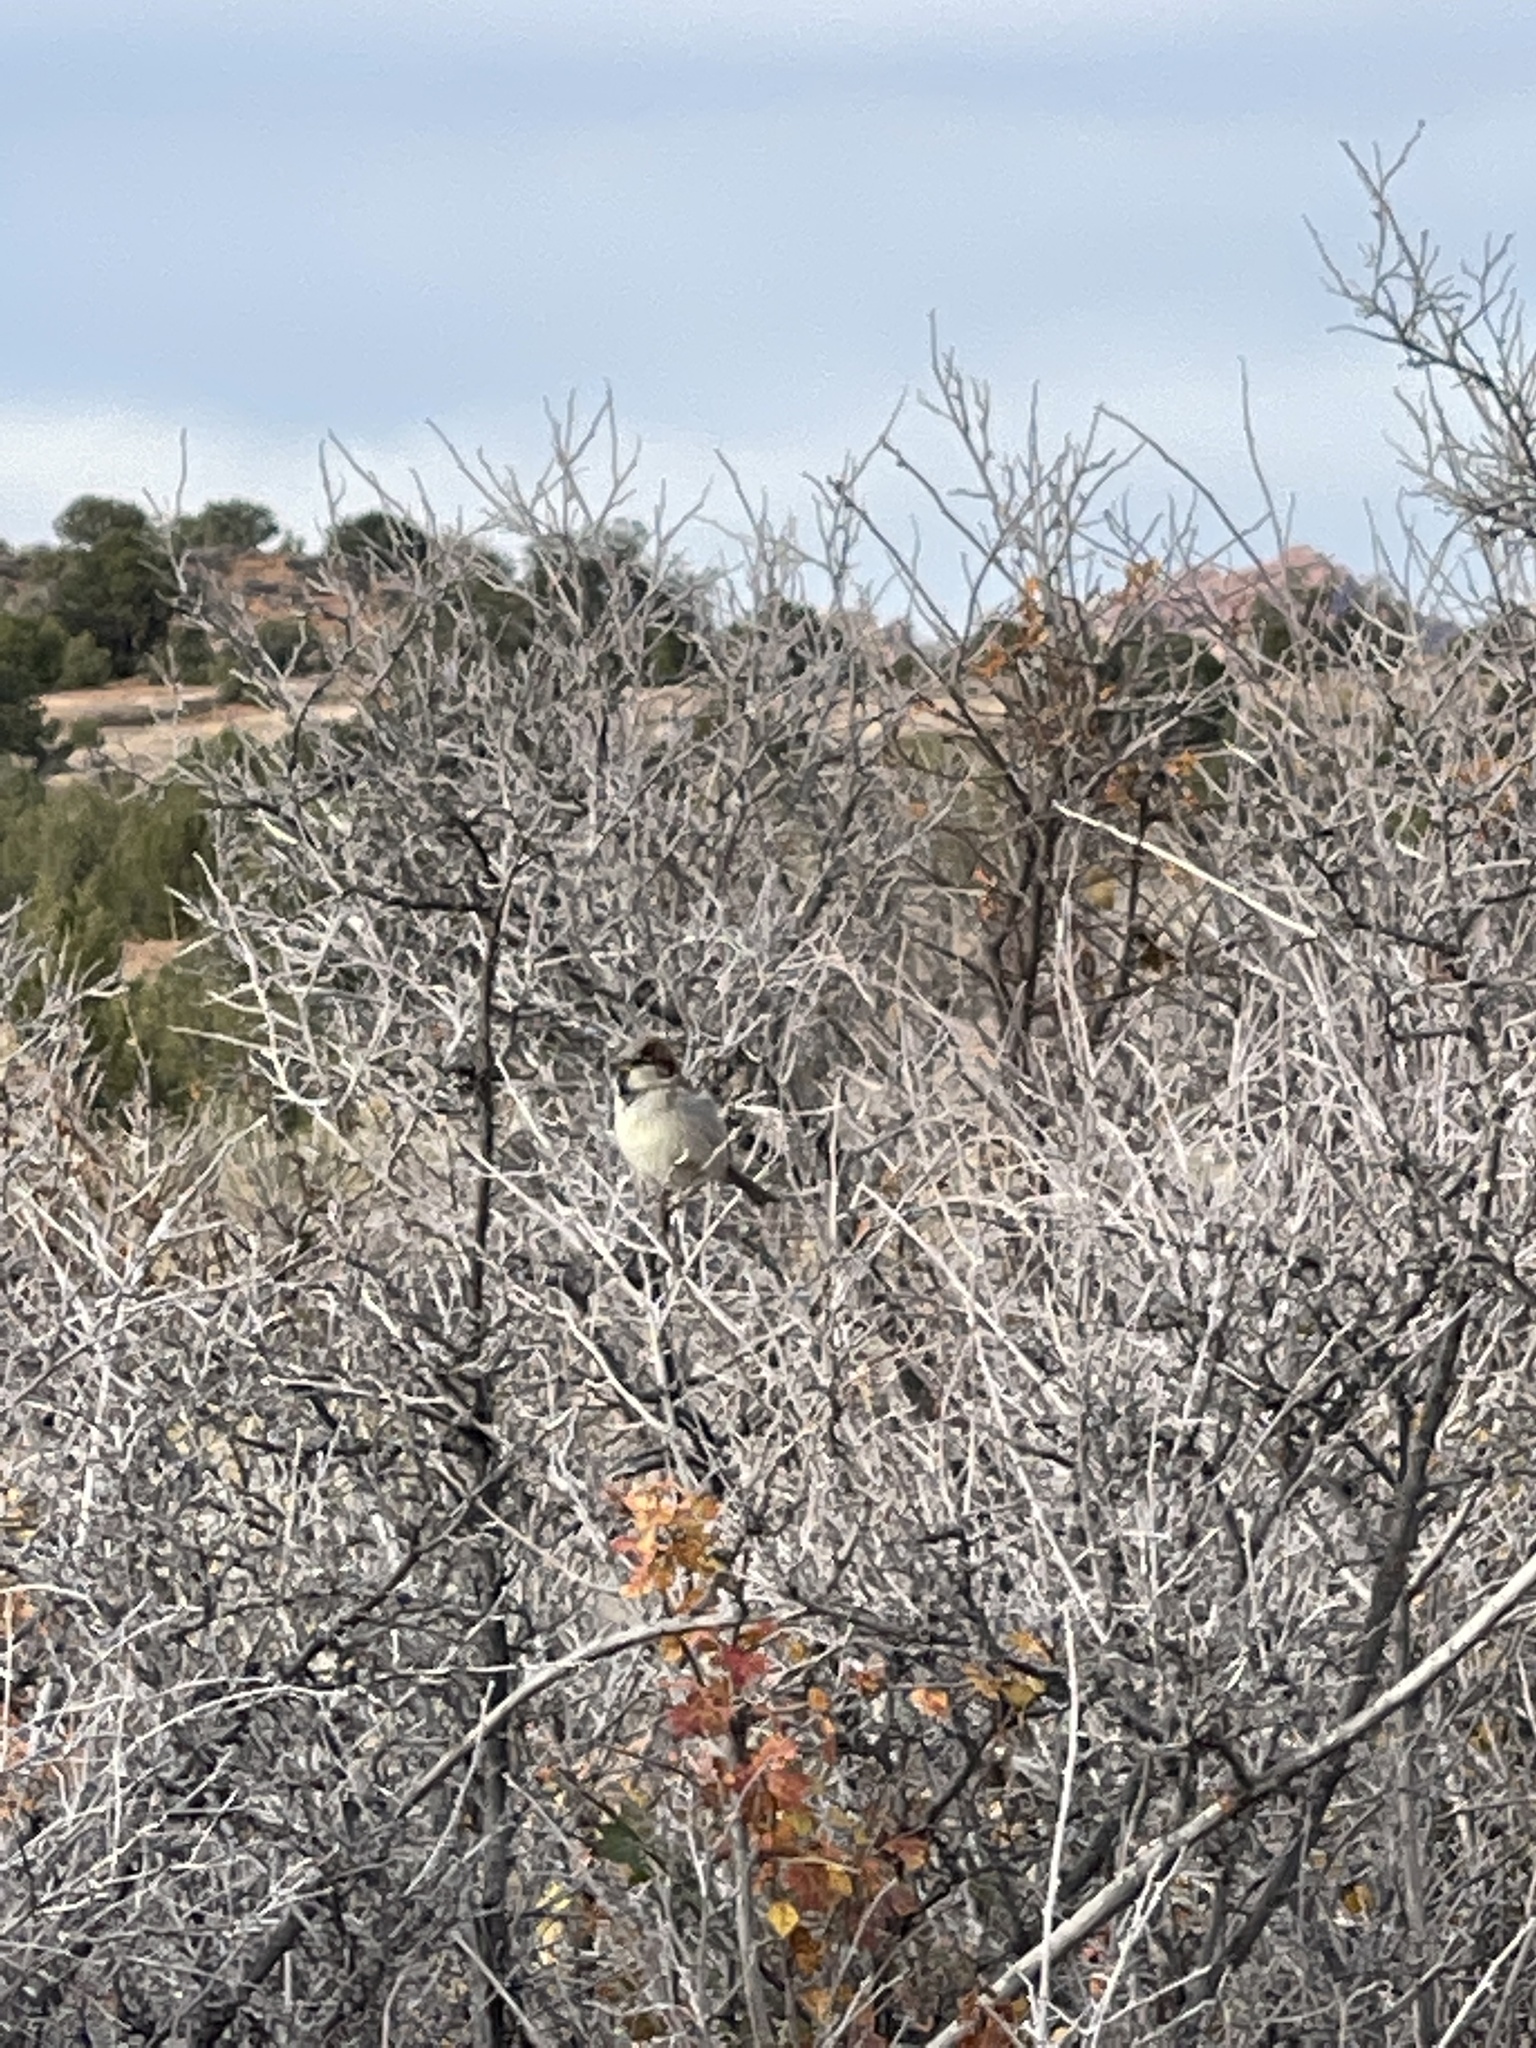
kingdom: Animalia
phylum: Chordata
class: Aves
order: Passeriformes
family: Passeridae
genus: Passer
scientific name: Passer domesticus
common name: House sparrow
